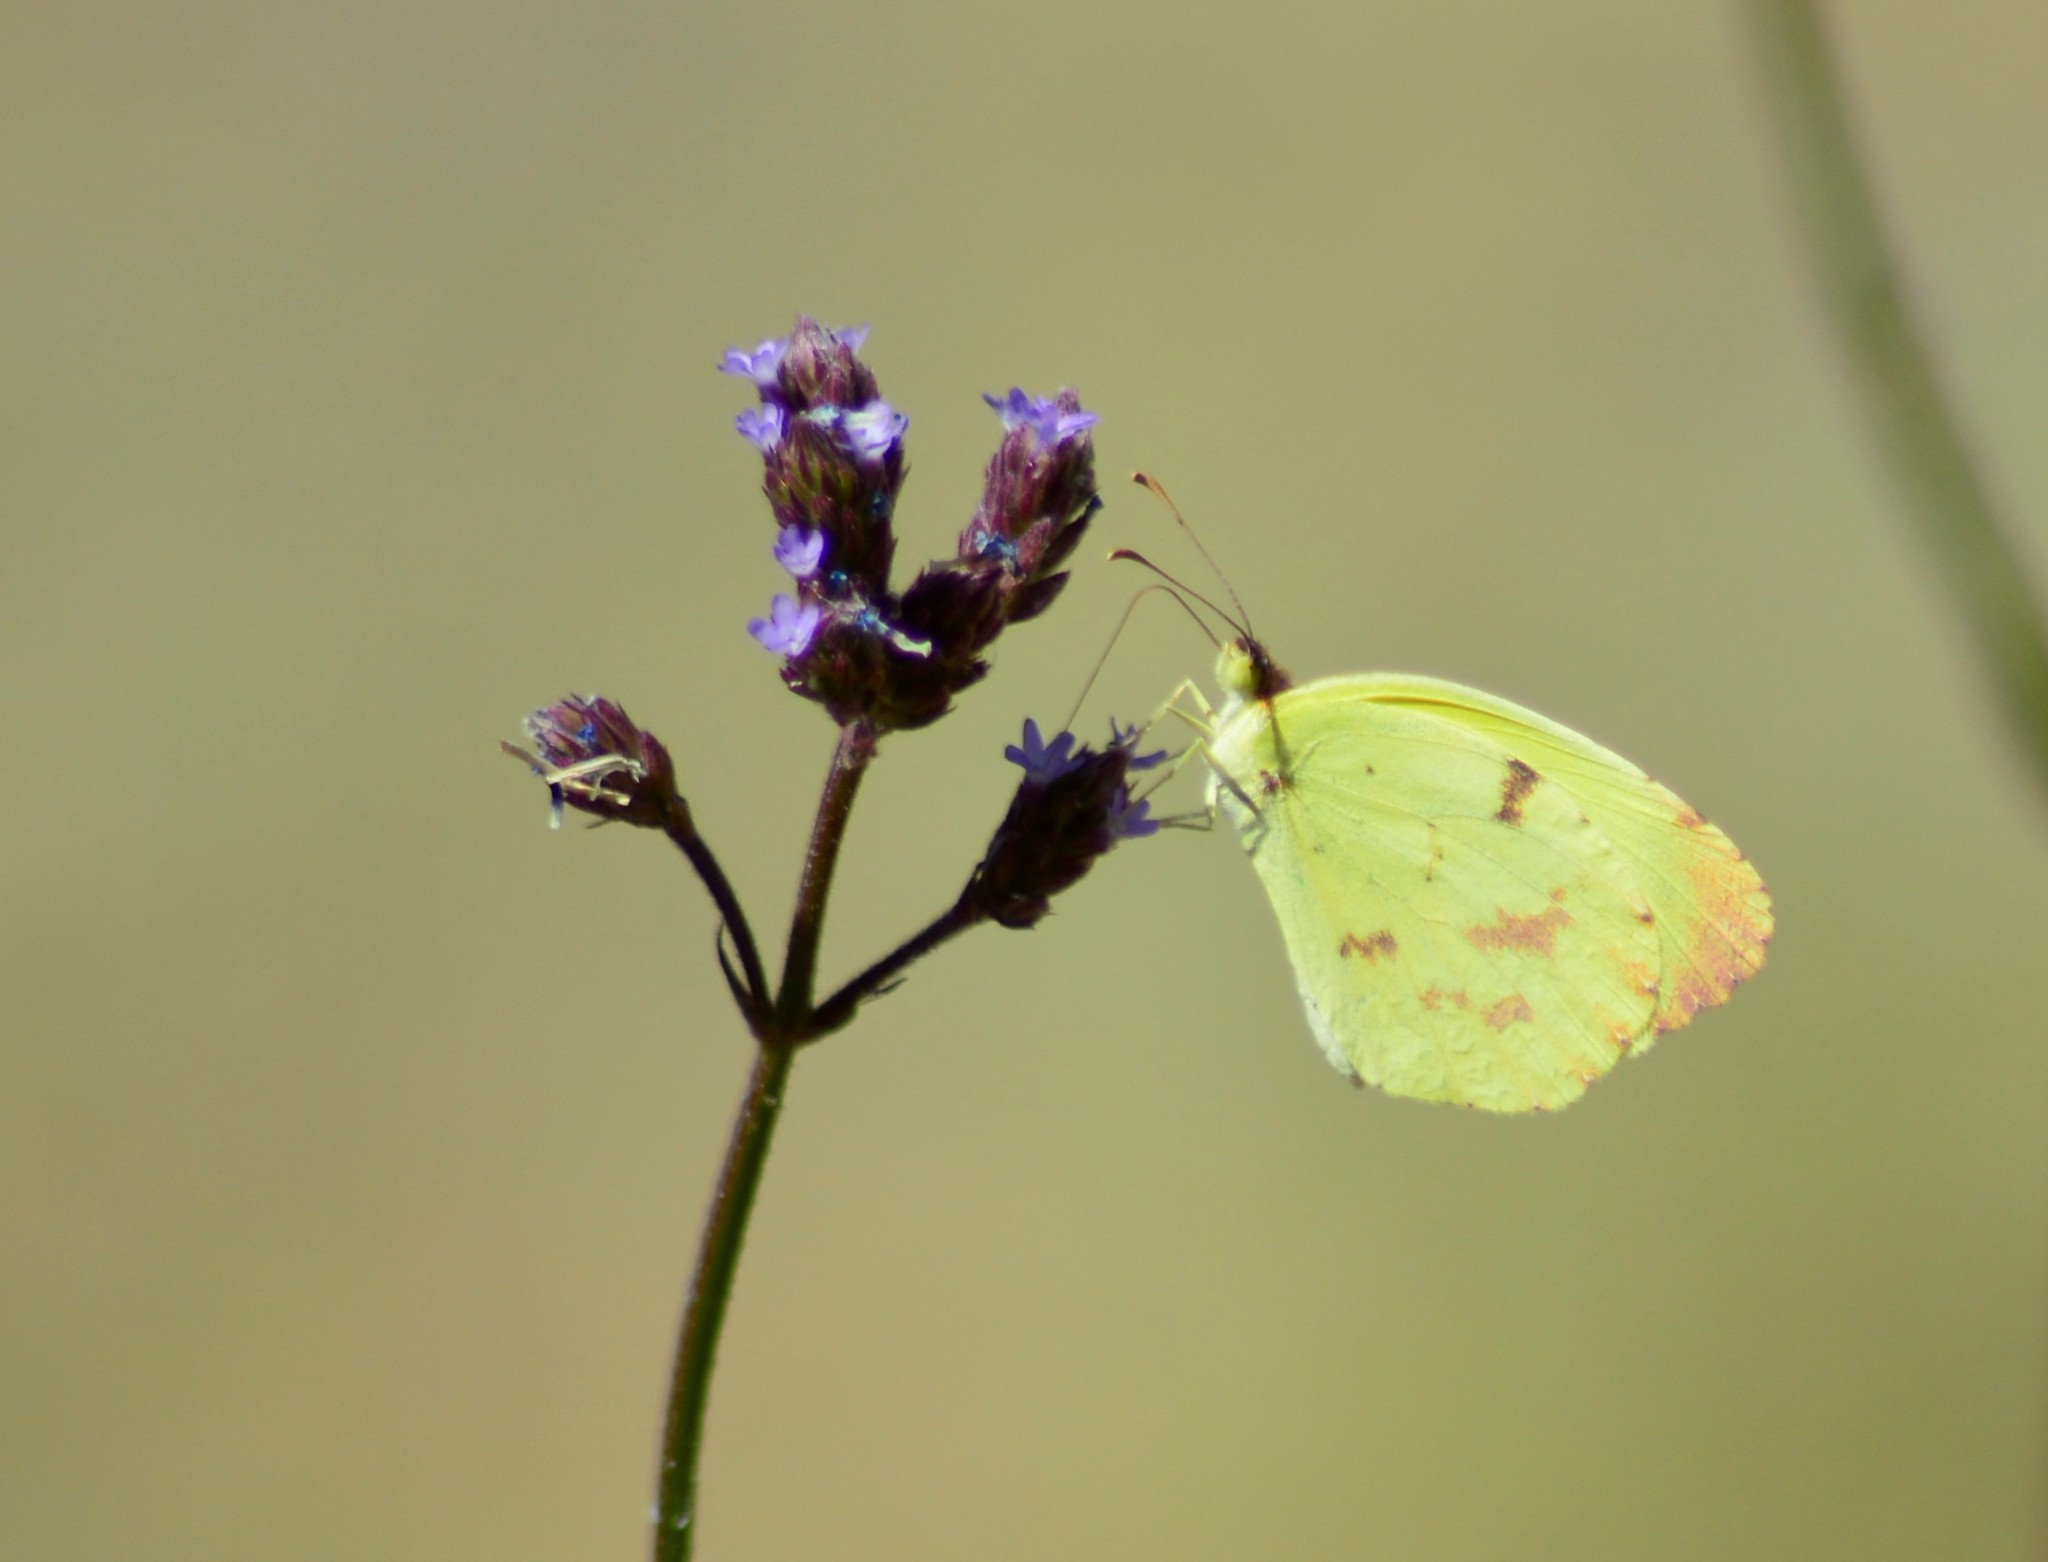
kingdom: Animalia
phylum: Arthropoda
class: Insecta
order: Lepidoptera
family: Pieridae
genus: Teriocolias
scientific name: Teriocolias
